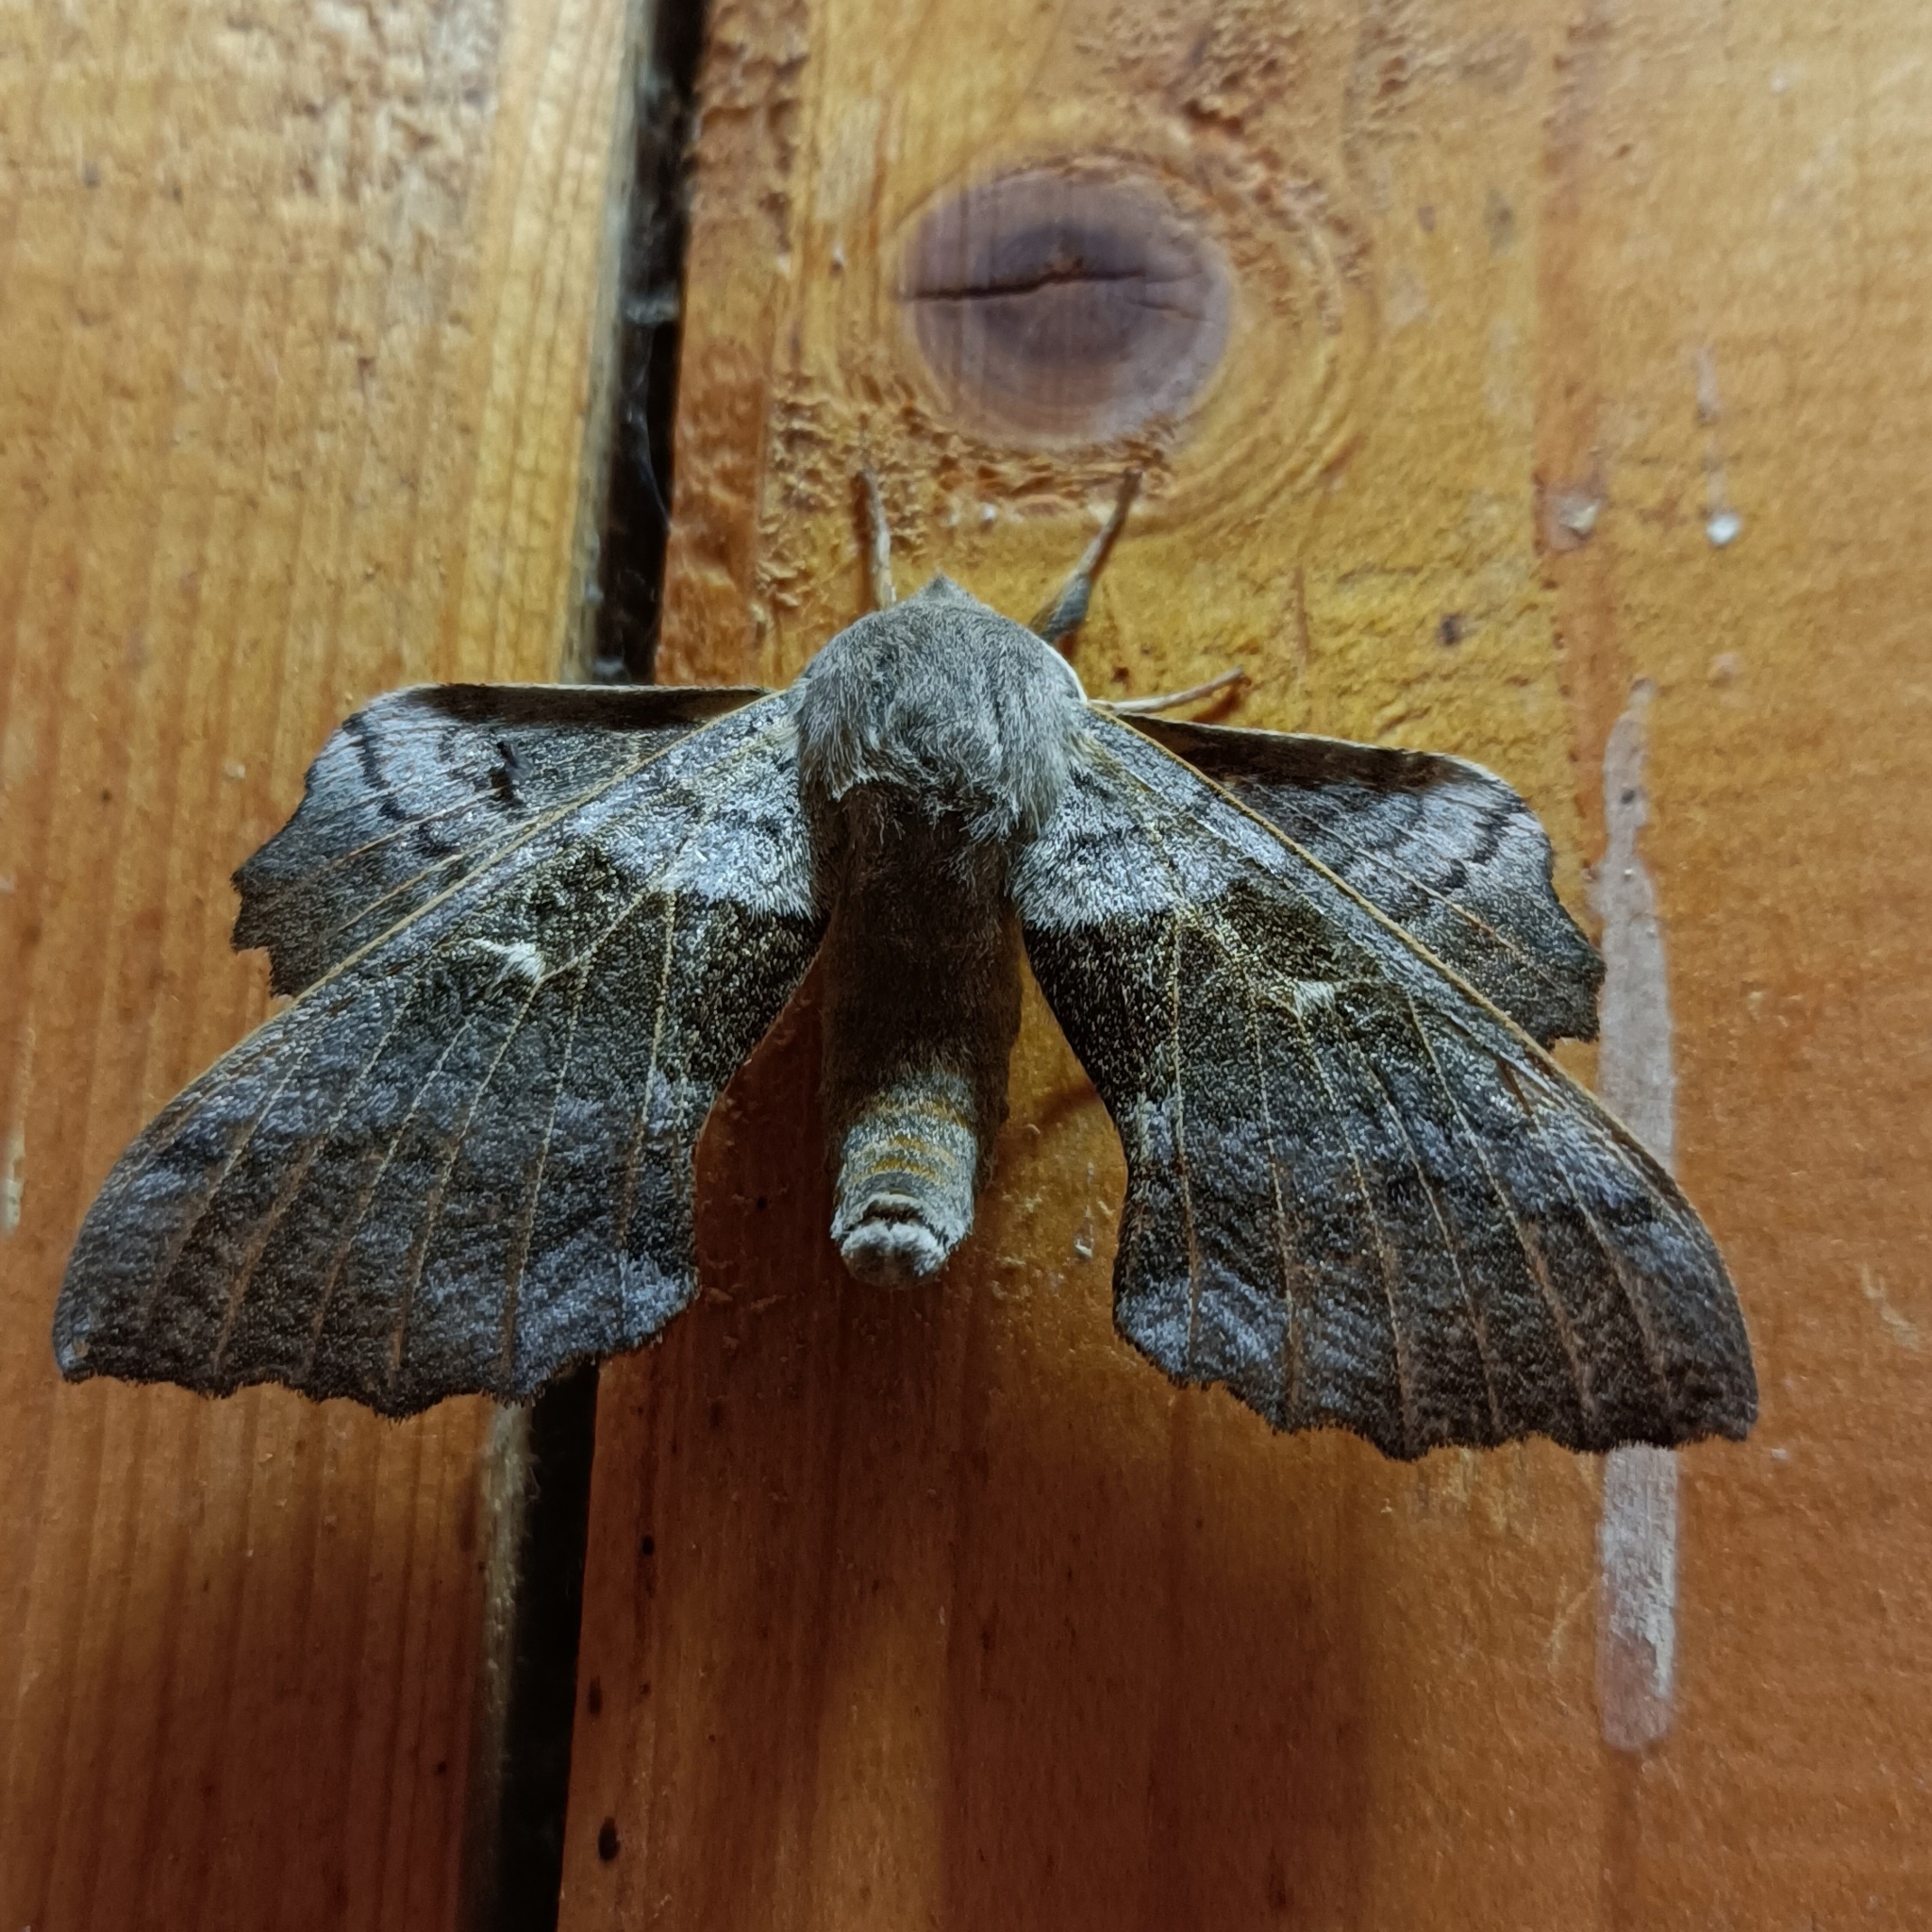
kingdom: Animalia
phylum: Arthropoda
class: Insecta
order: Lepidoptera
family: Sphingidae
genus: Laothoe
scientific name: Laothoe populi
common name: Poplar hawk-moth
